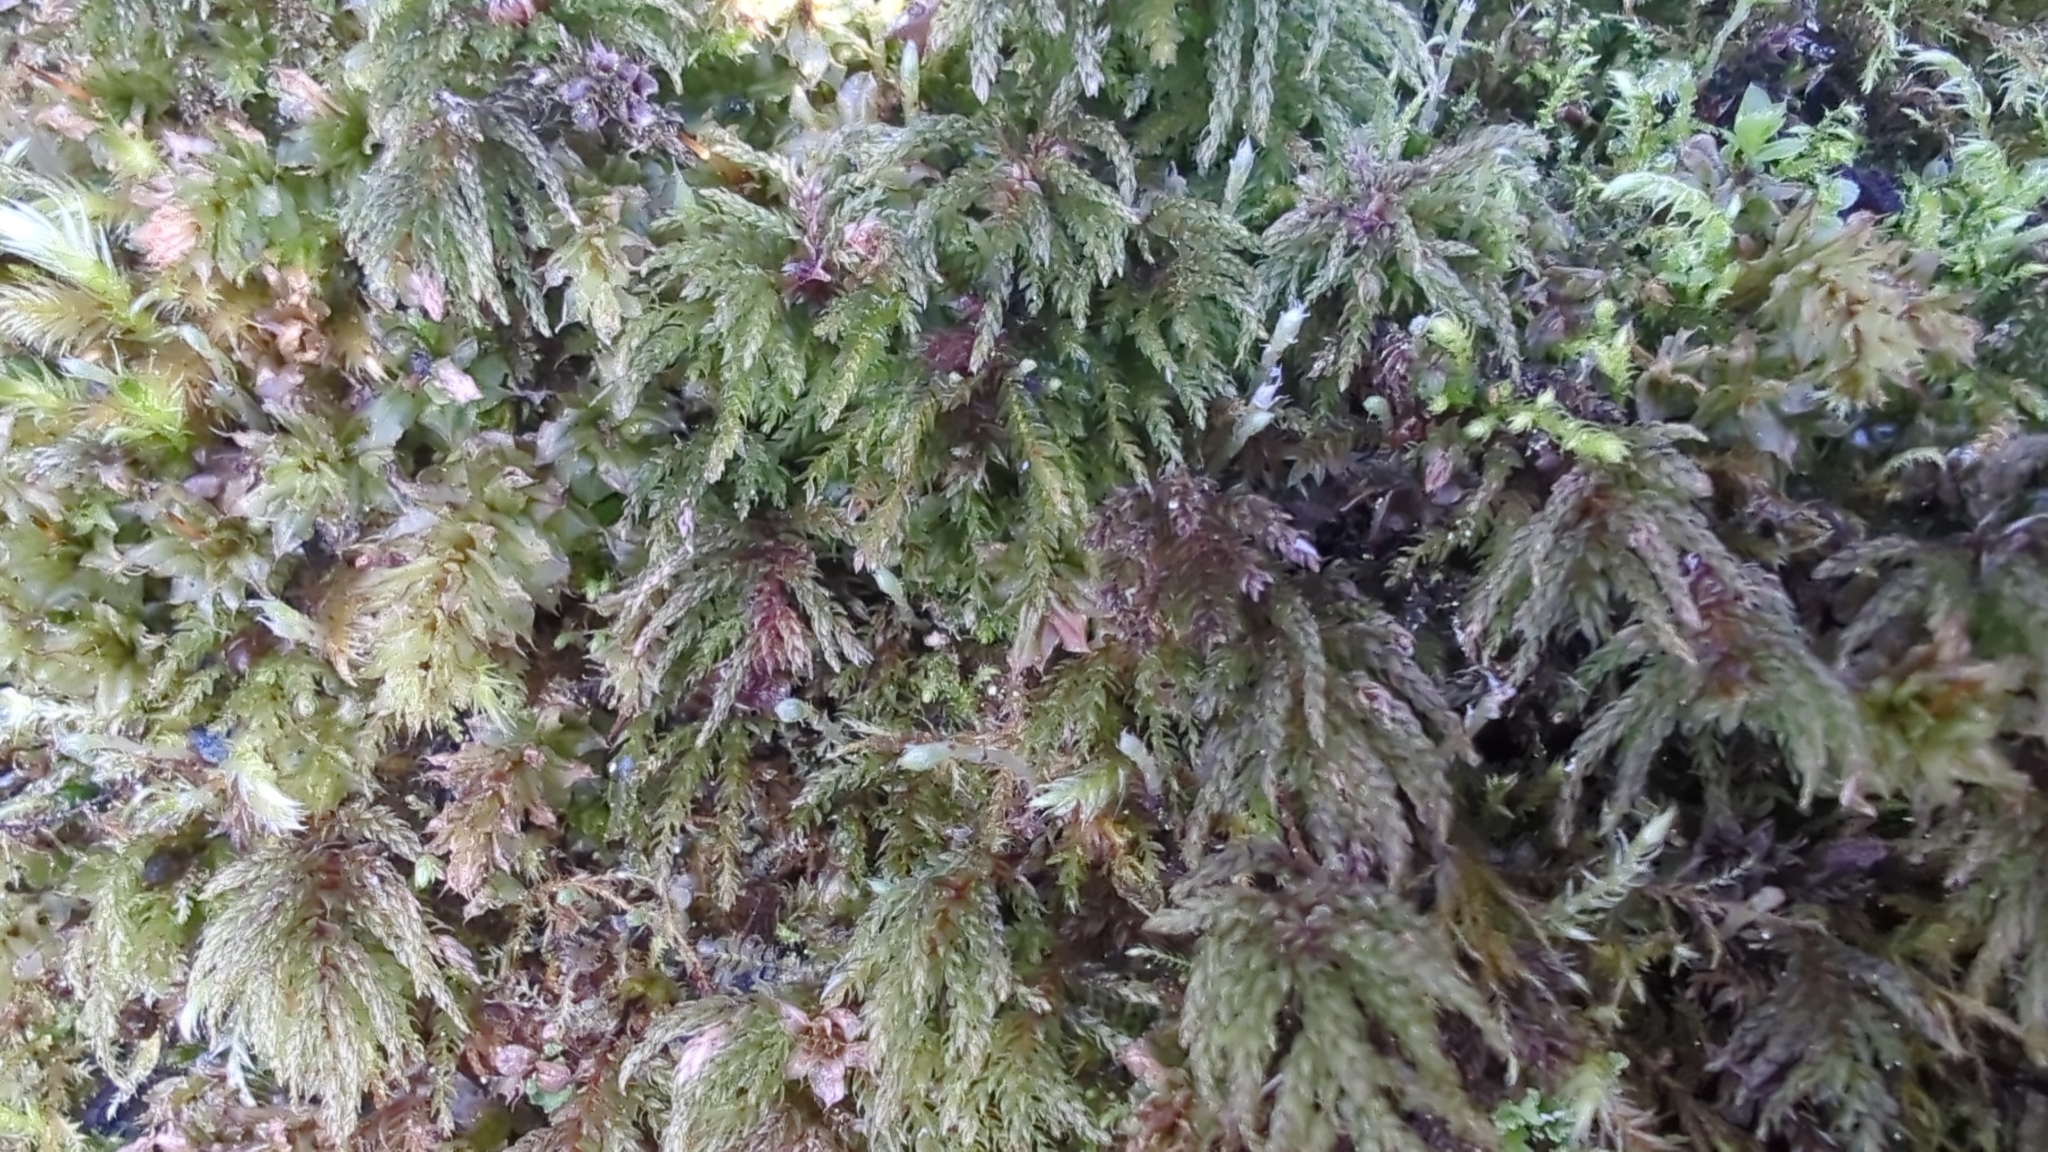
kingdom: Plantae
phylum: Bryophyta
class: Bryopsida
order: Bryales
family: Mniaceae
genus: Leucolepis
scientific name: Leucolepis acanthoneura
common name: Leucolepis umbrella moss
